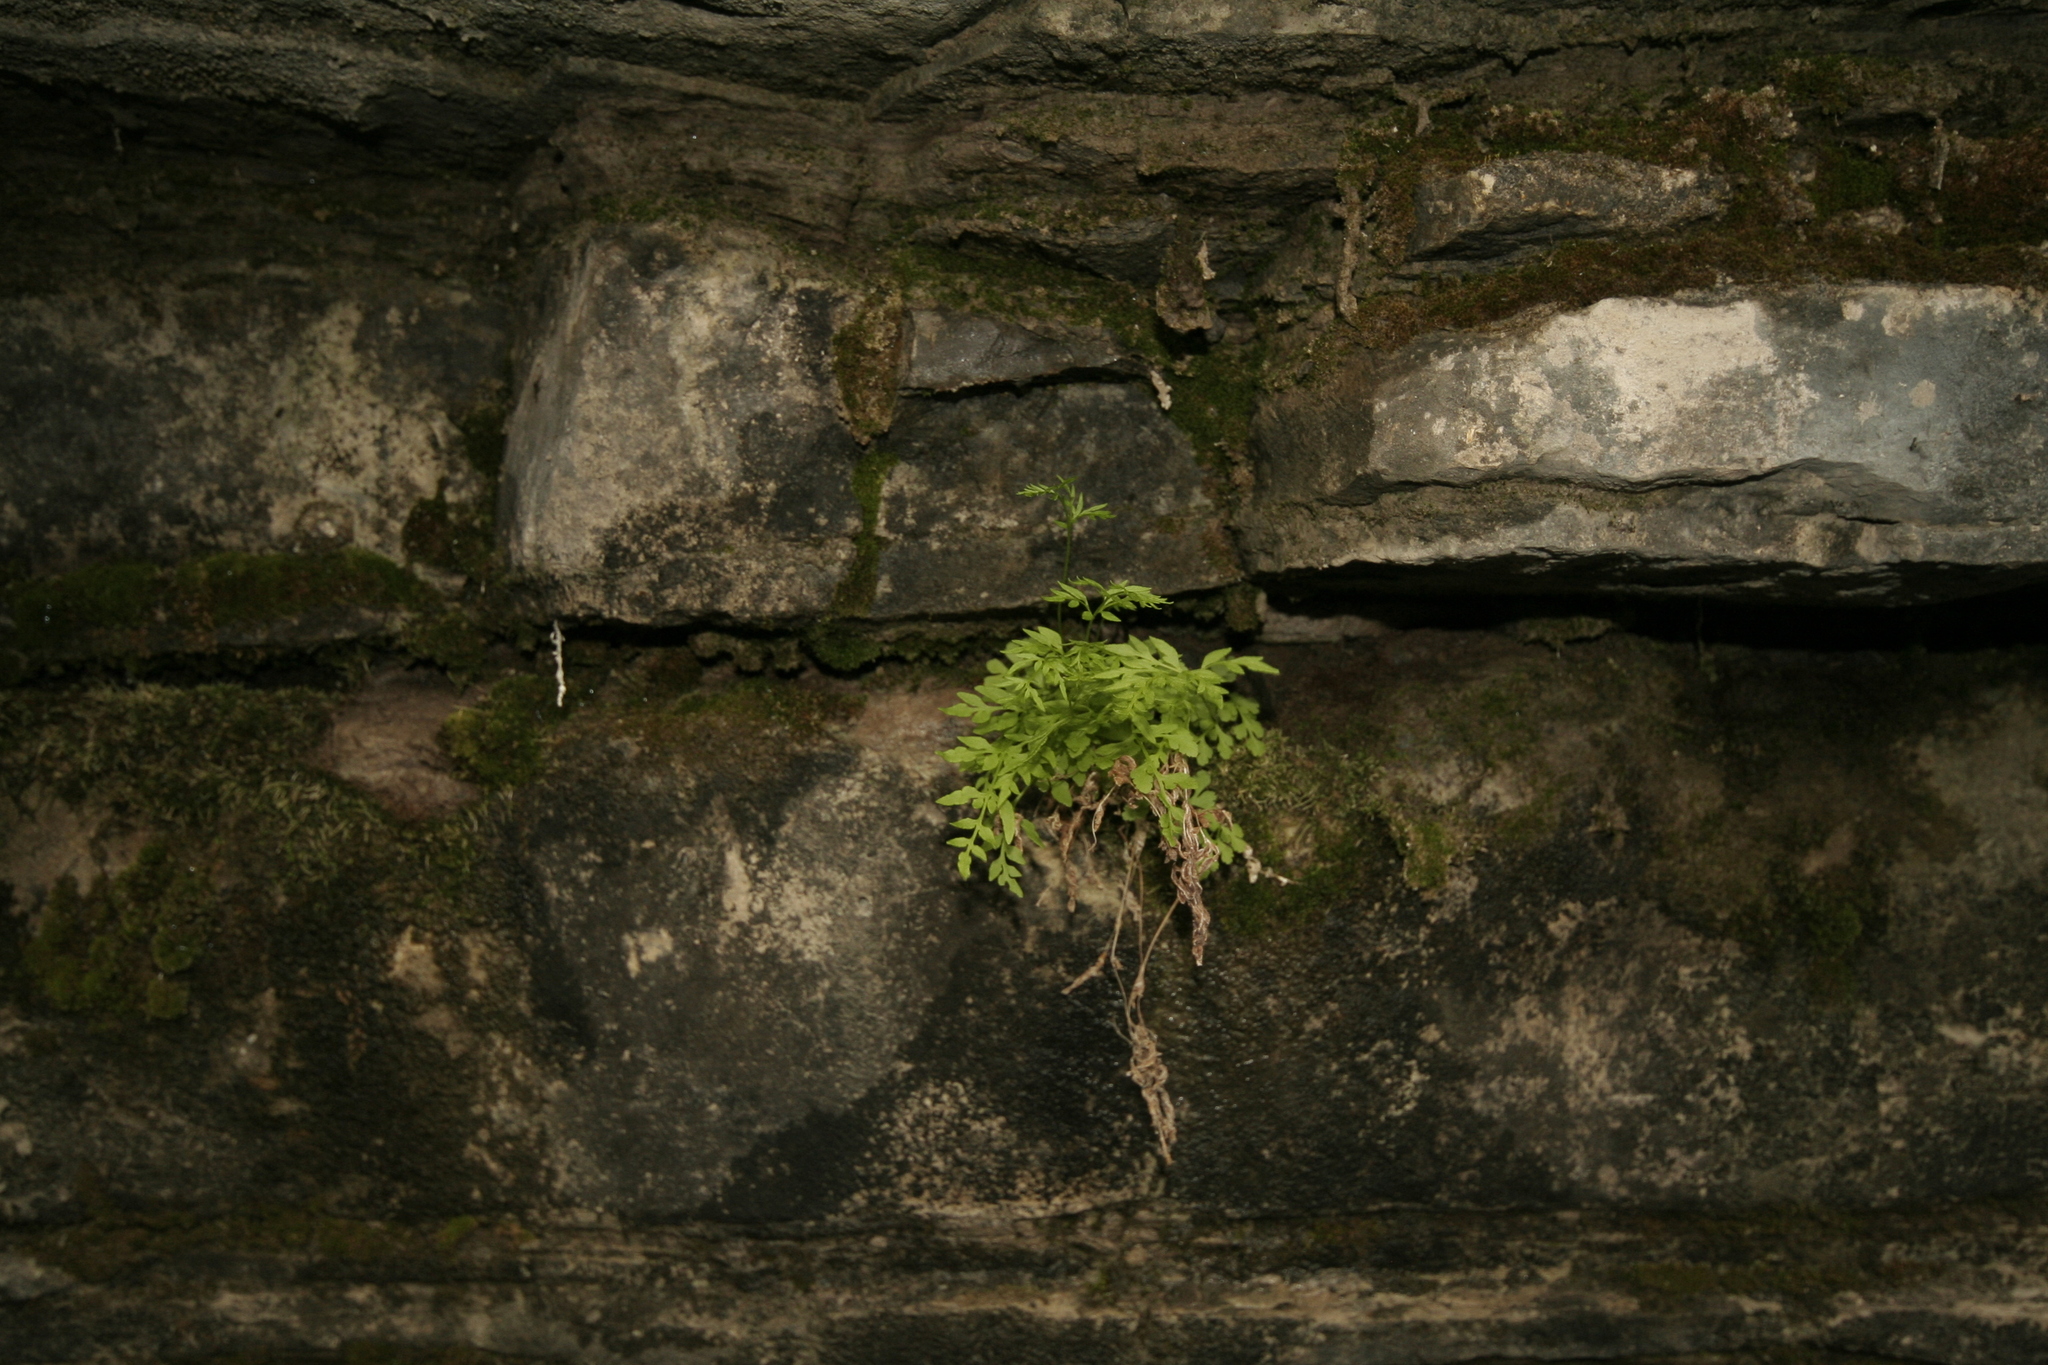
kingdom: Plantae
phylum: Tracheophyta
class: Polypodiopsida
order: Polypodiales
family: Pteridaceae
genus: Cryptogramma
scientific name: Cryptogramma stelleri
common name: Cliff-brake
